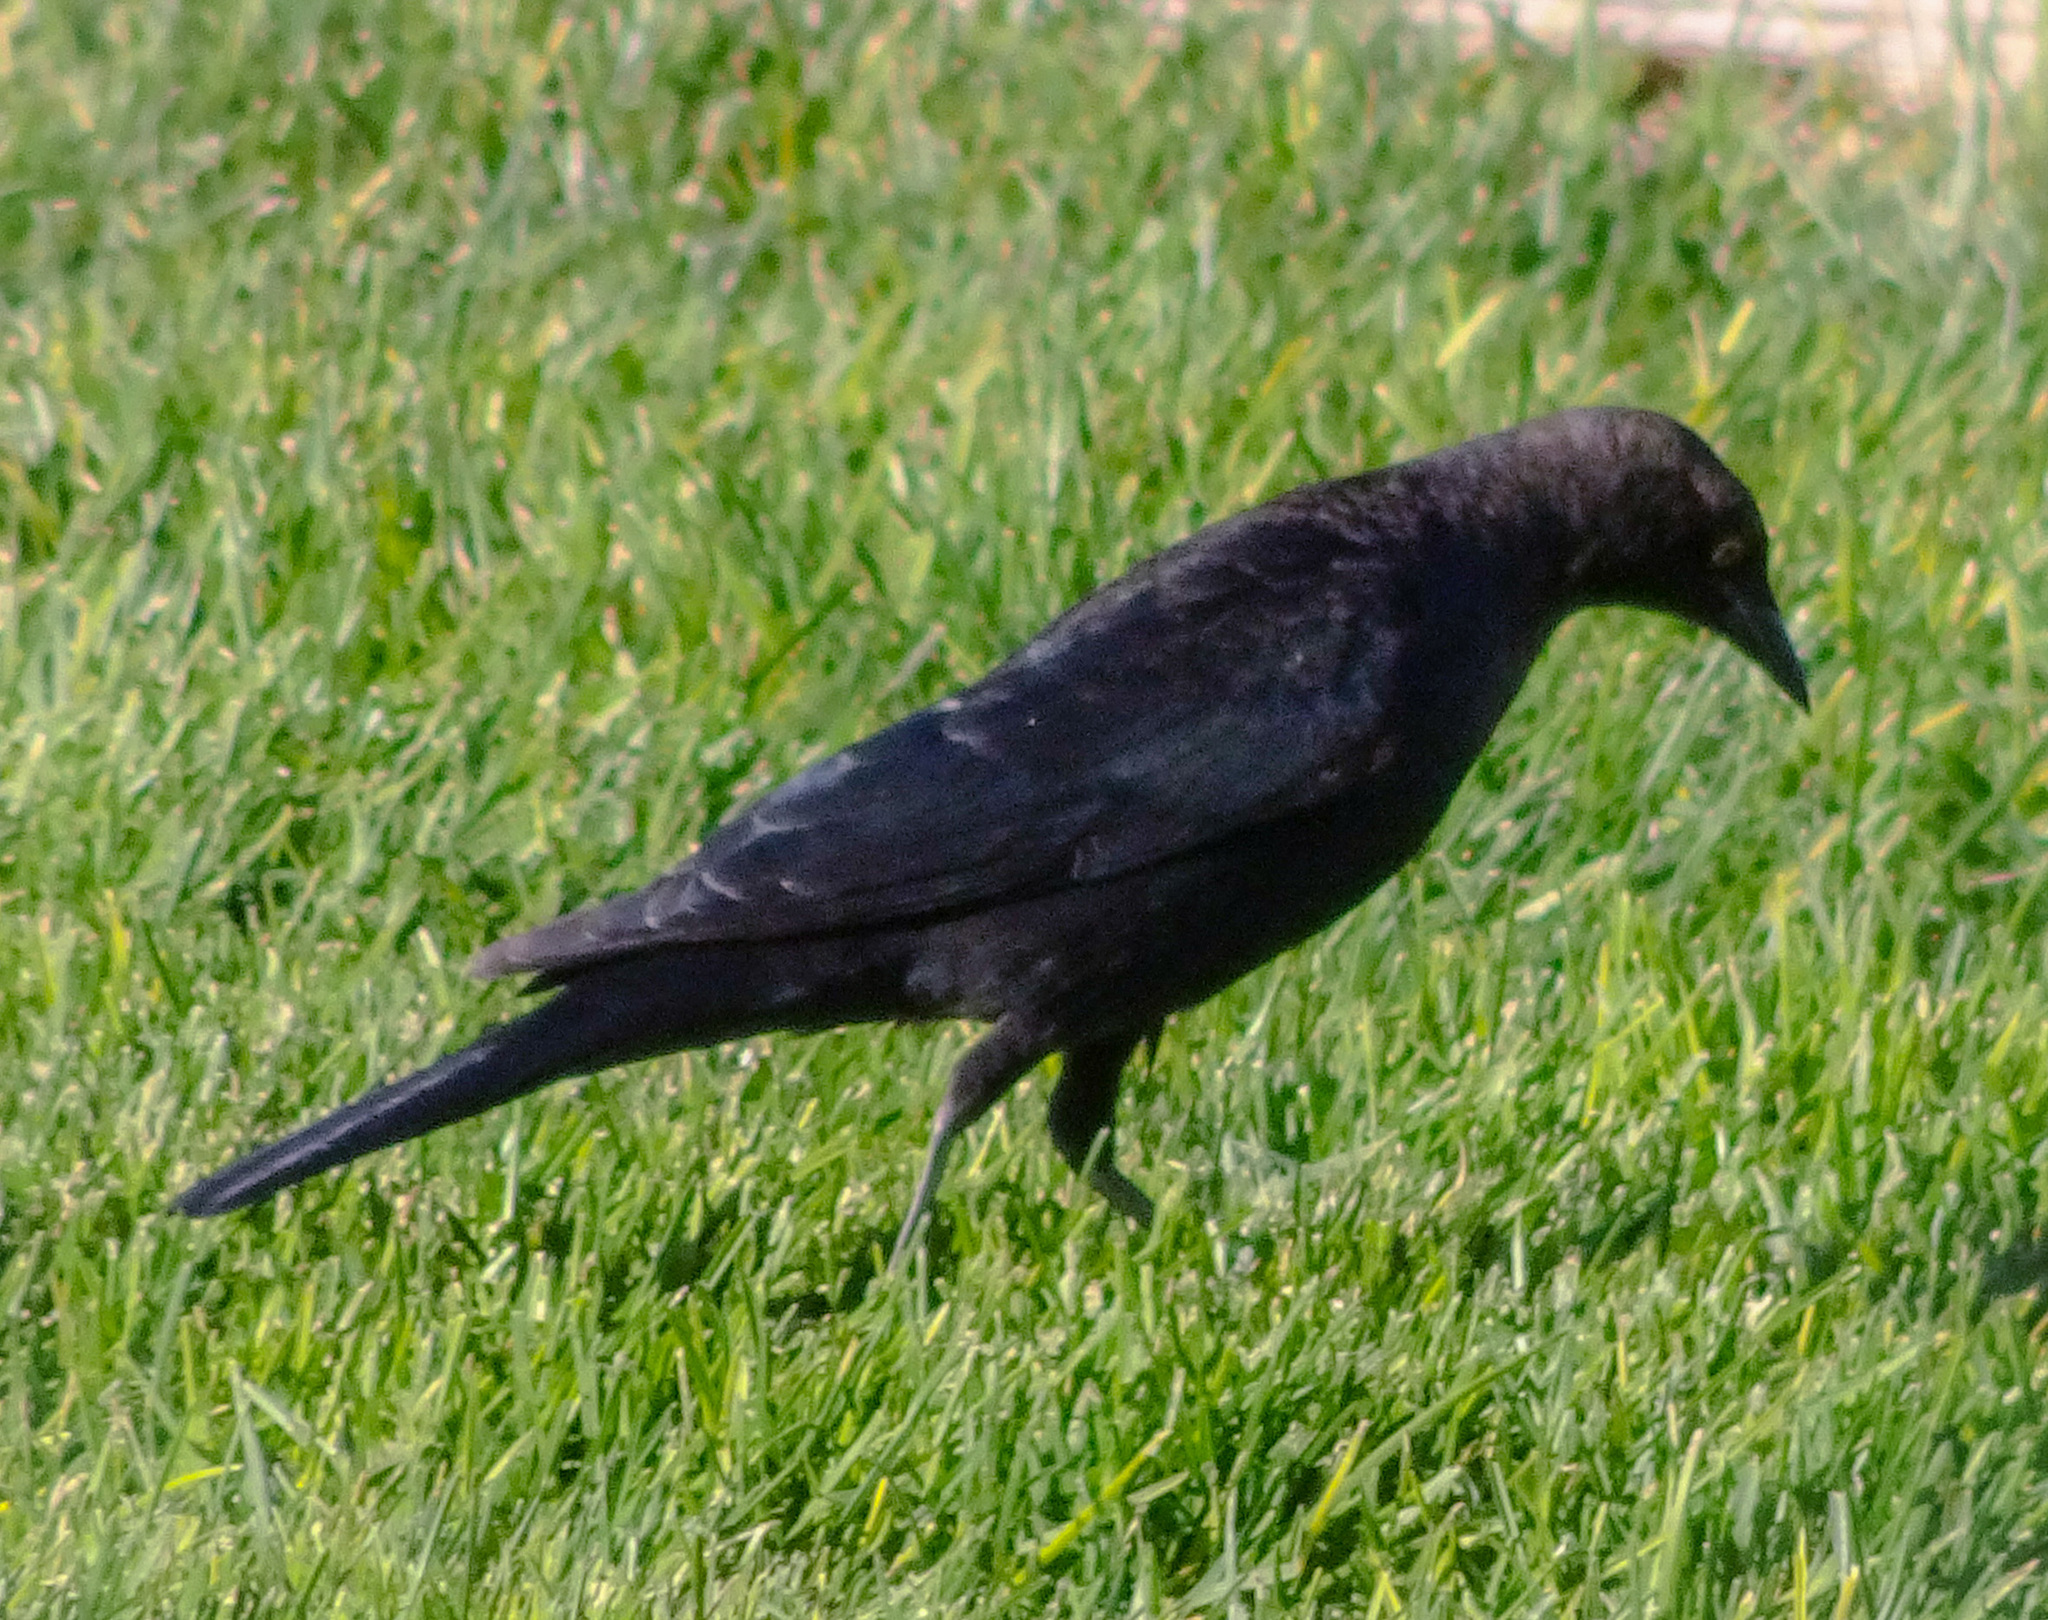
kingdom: Animalia
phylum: Chordata
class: Aves
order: Passeriformes
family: Icteridae
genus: Euphagus
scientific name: Euphagus cyanocephalus
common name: Brewer's blackbird
